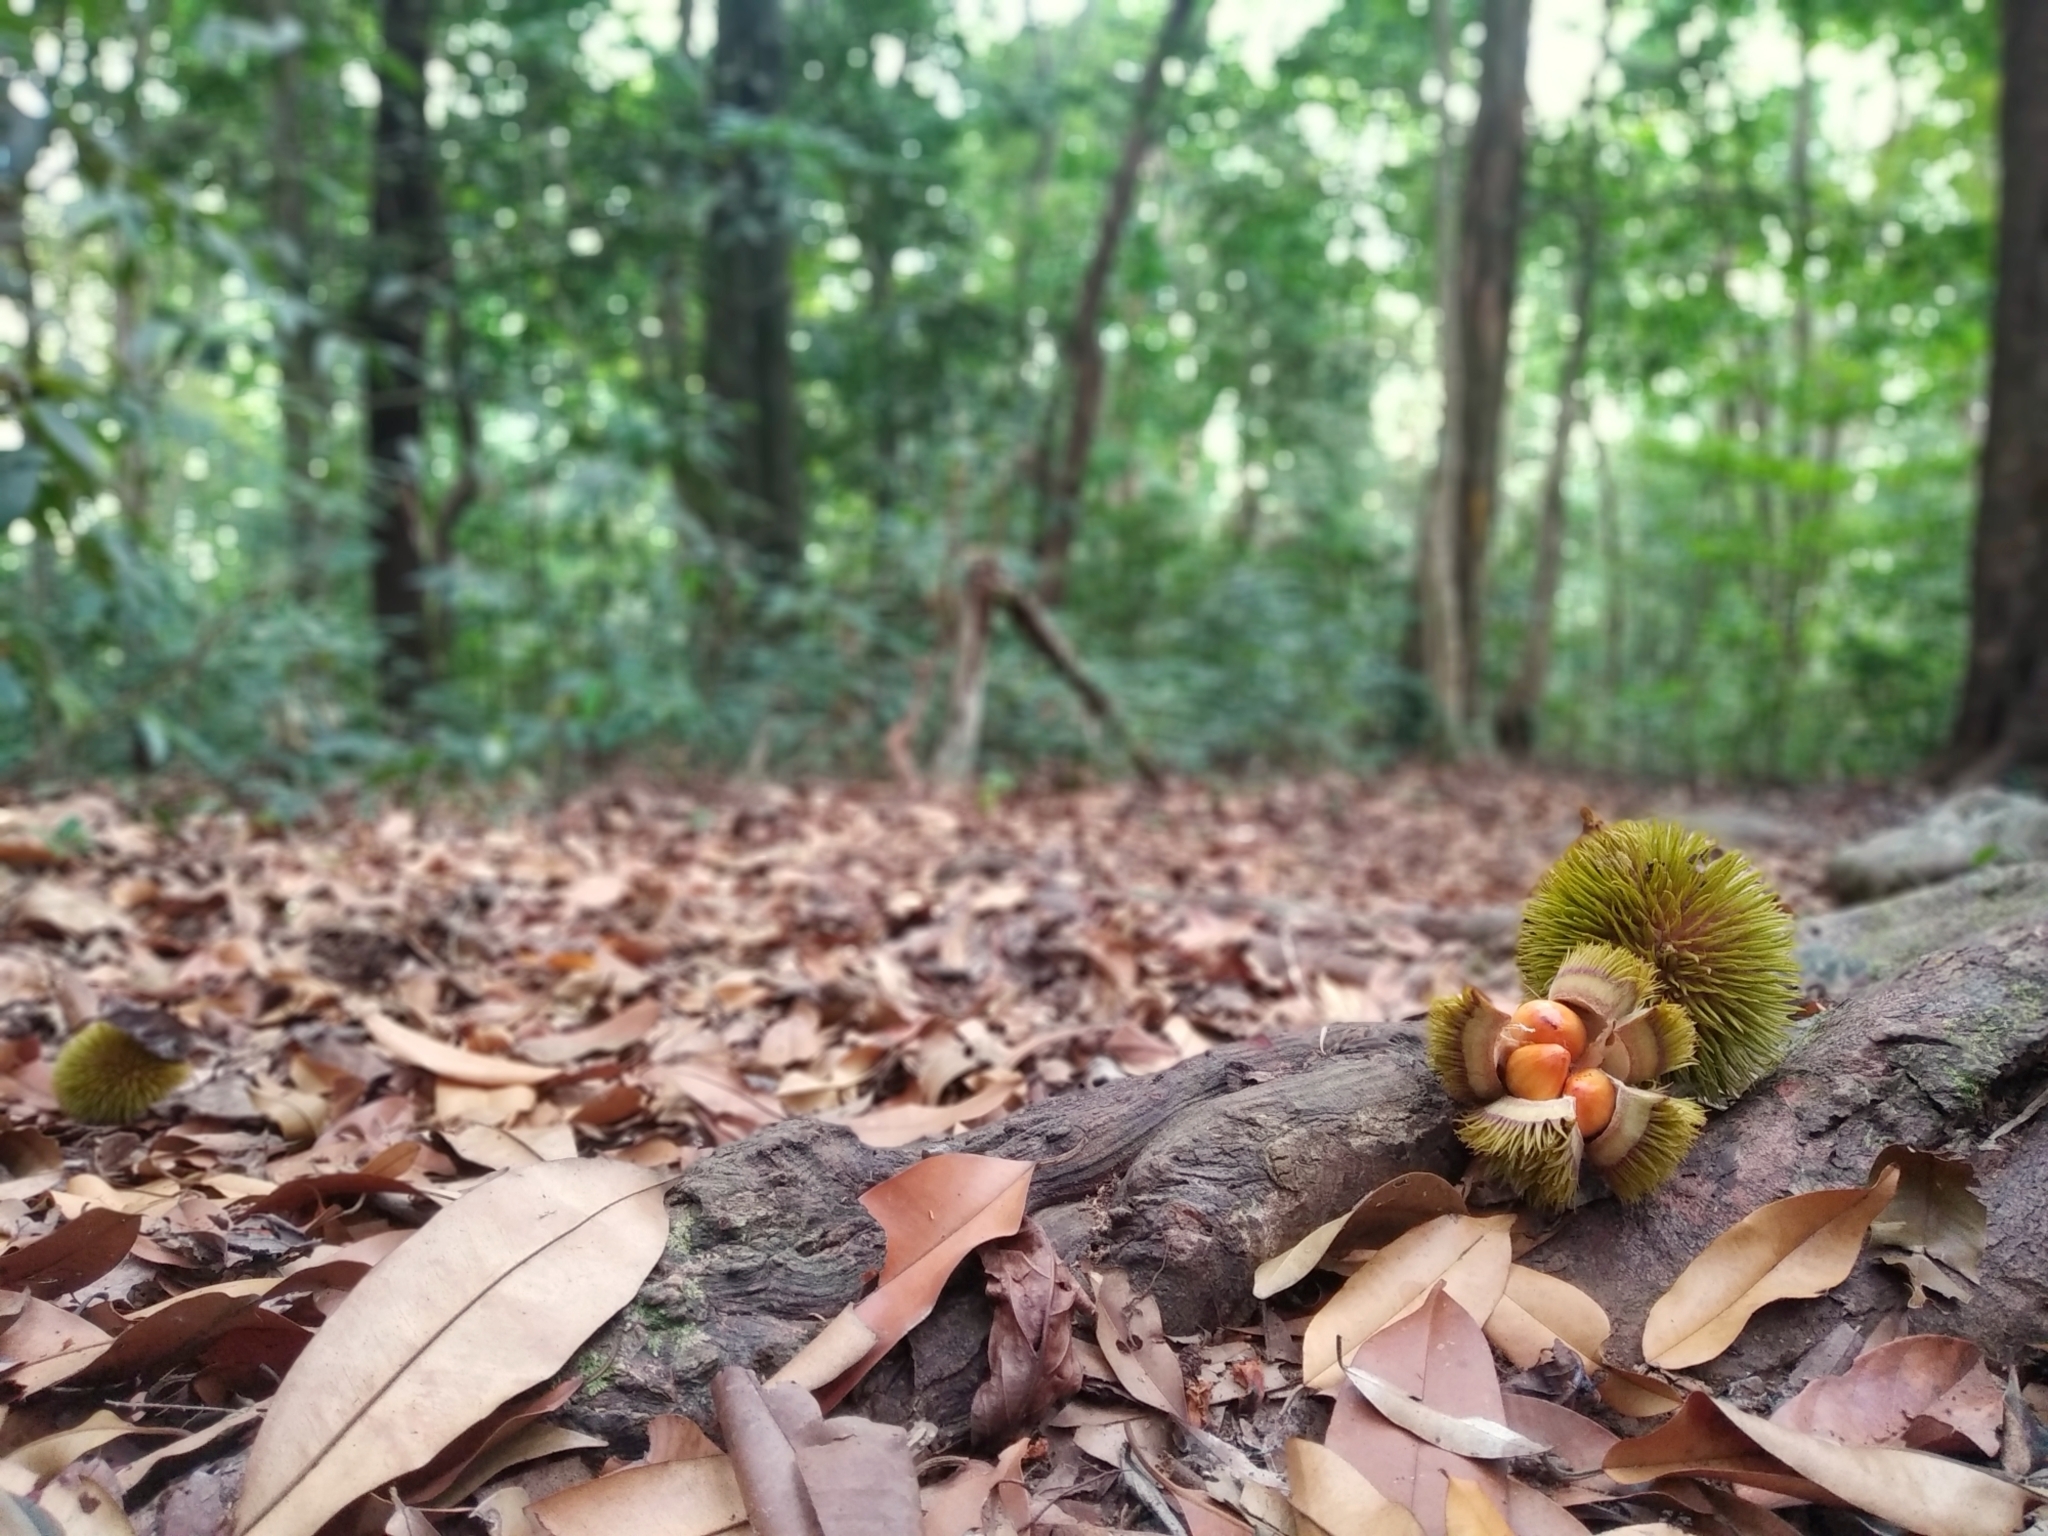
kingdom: Plantae
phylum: Tracheophyta
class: Magnoliopsida
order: Malvales
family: Malvaceae
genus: Cullenia
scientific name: Cullenia exarillata
